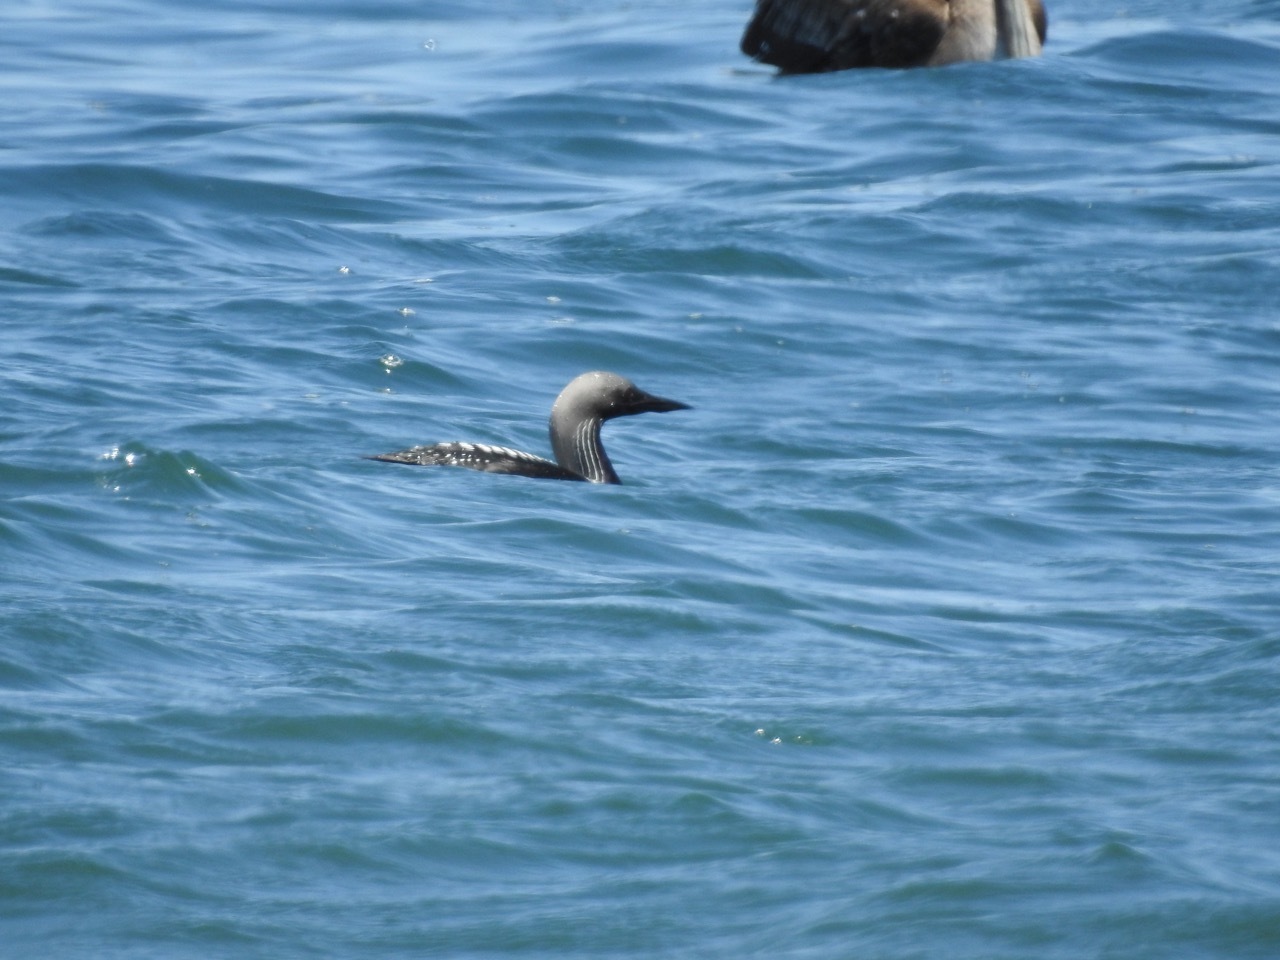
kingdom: Animalia
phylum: Chordata
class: Aves
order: Gaviiformes
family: Gaviidae
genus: Gavia
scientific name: Gavia pacifica
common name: Pacific loon
